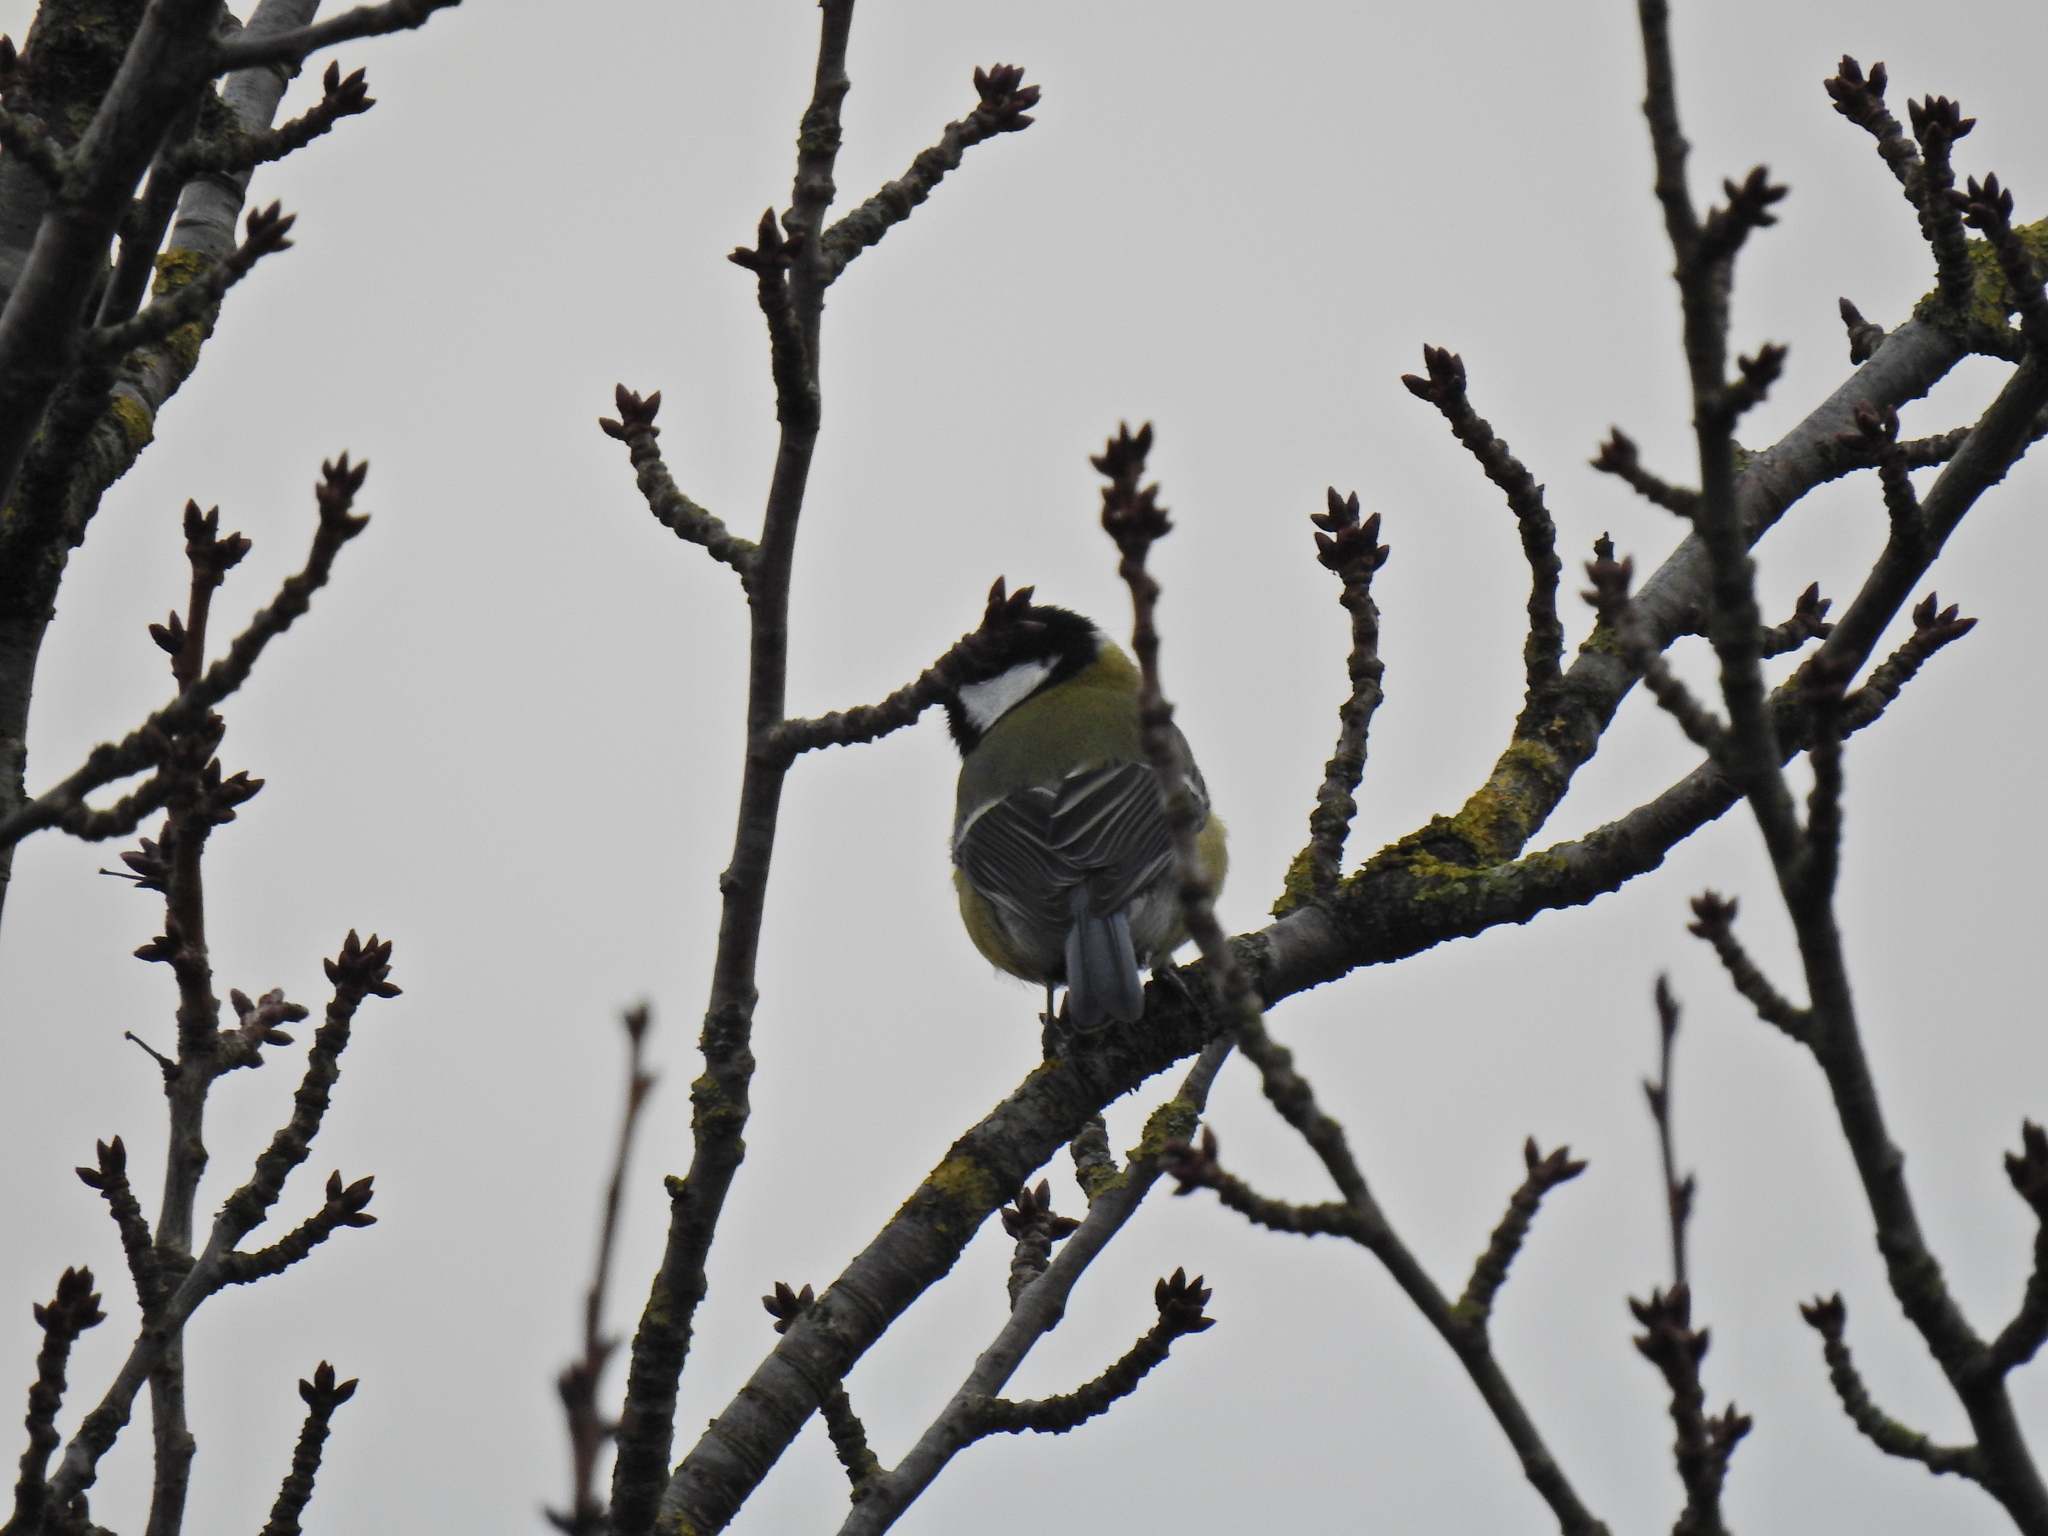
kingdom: Animalia
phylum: Chordata
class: Aves
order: Passeriformes
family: Paridae
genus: Parus
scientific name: Parus major
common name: Great tit
